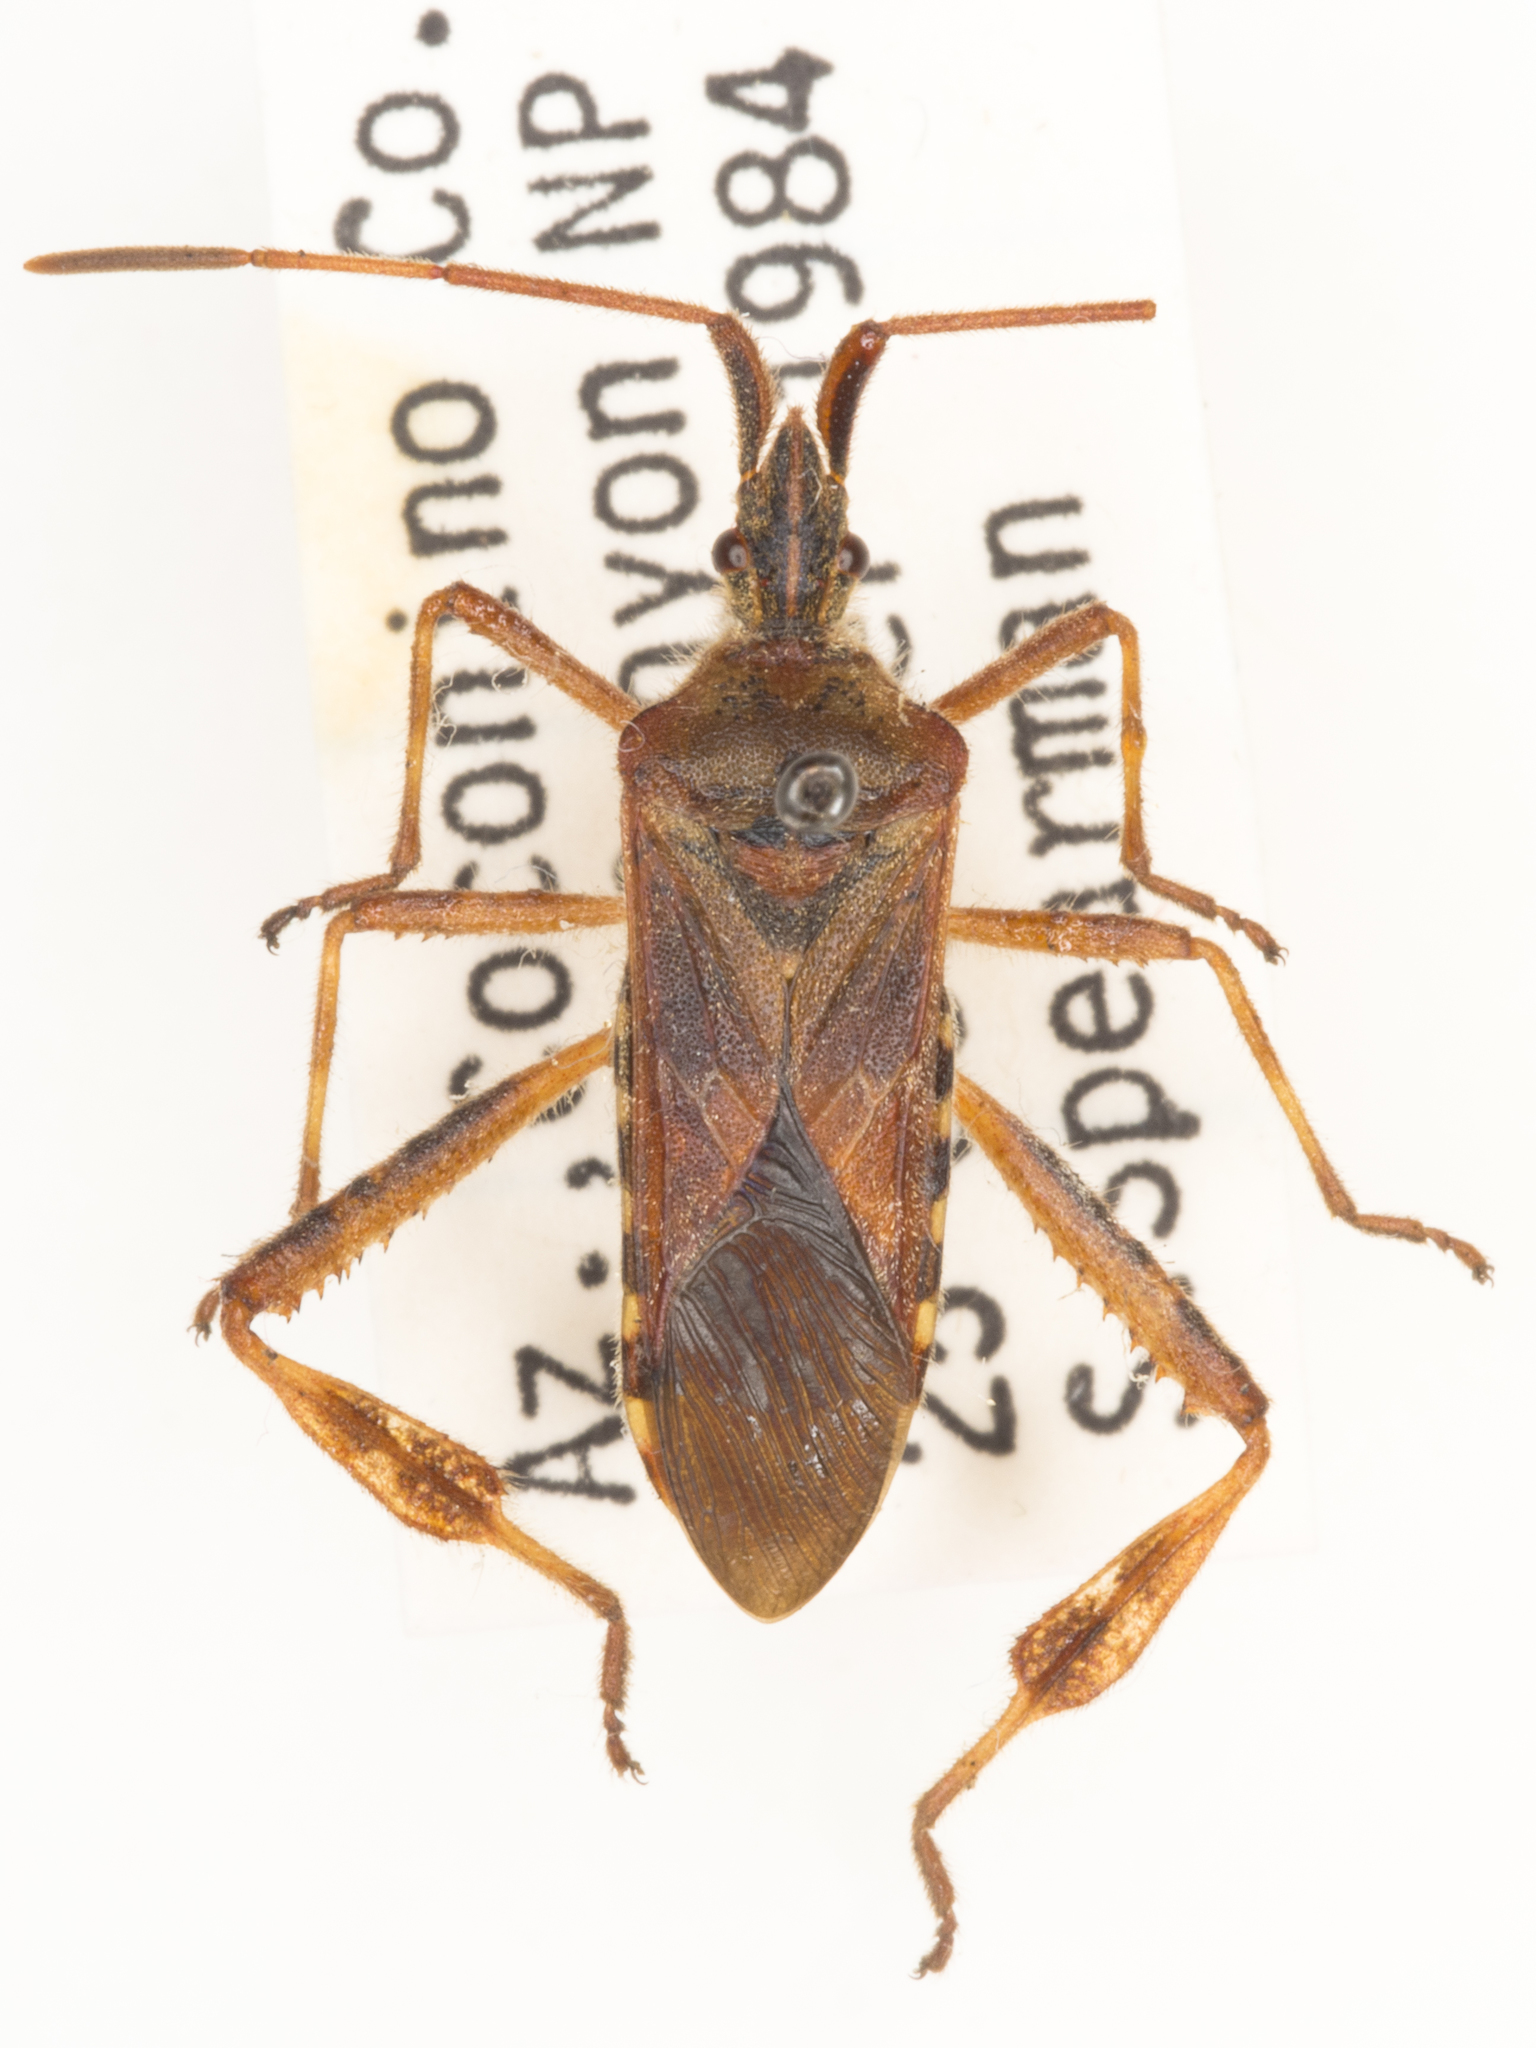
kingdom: Animalia
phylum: Arthropoda
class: Insecta
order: Hemiptera
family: Coreidae
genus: Leptoglossus
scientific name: Leptoglossus occidentalis
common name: Western conifer-seed bug
